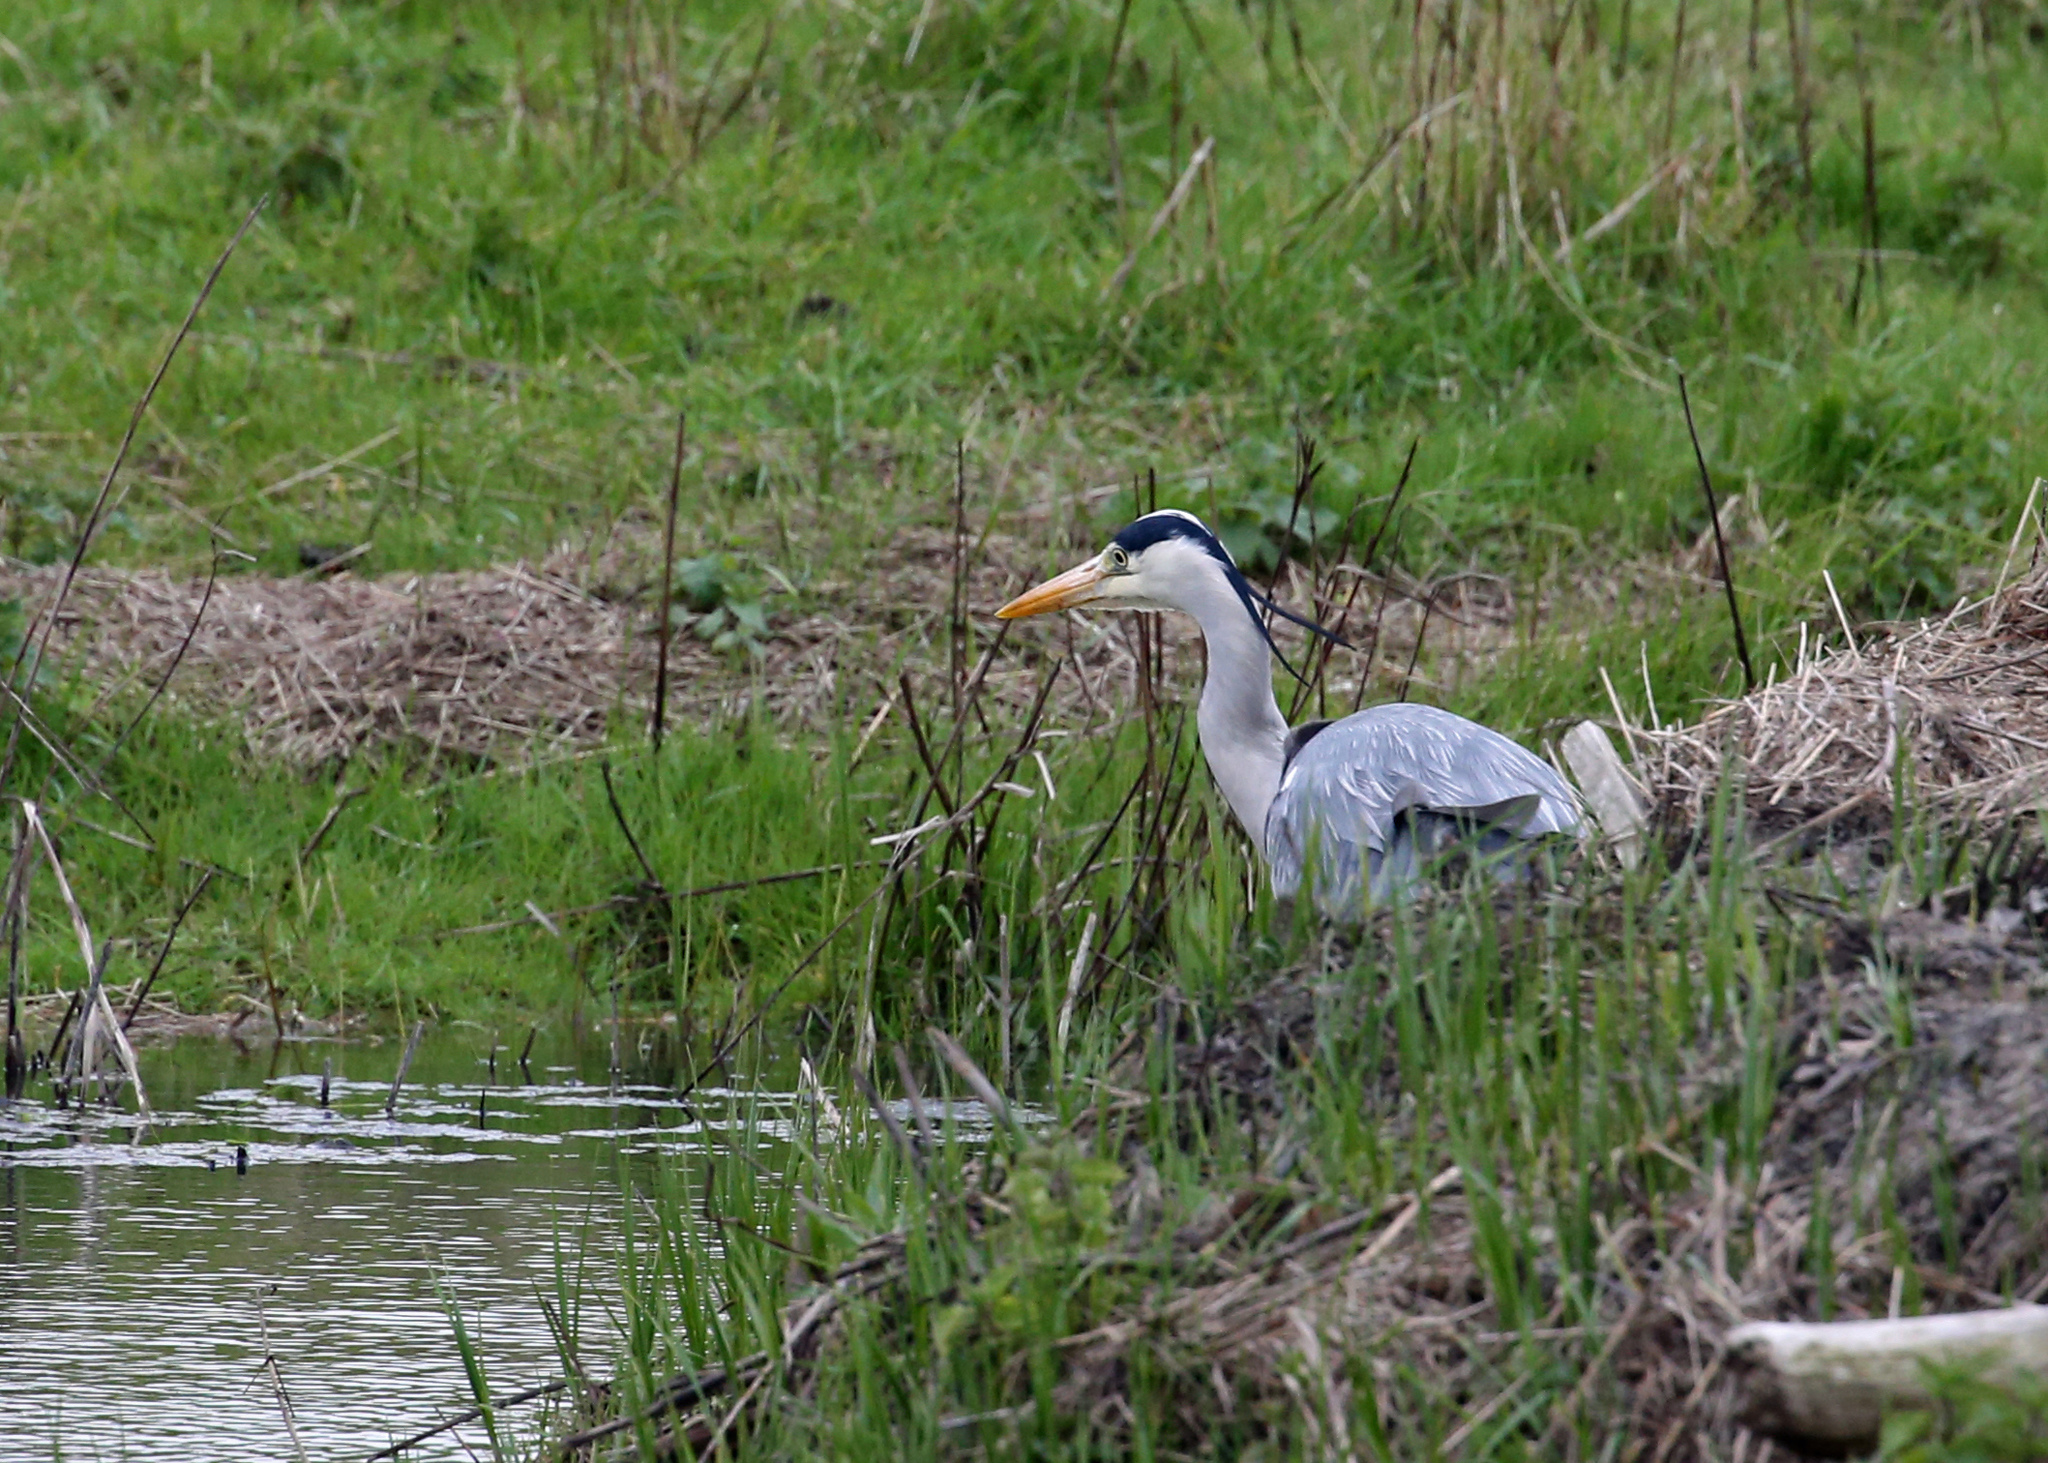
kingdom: Animalia
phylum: Chordata
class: Aves
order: Pelecaniformes
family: Ardeidae
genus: Ardea
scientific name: Ardea cinerea
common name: Grey heron
